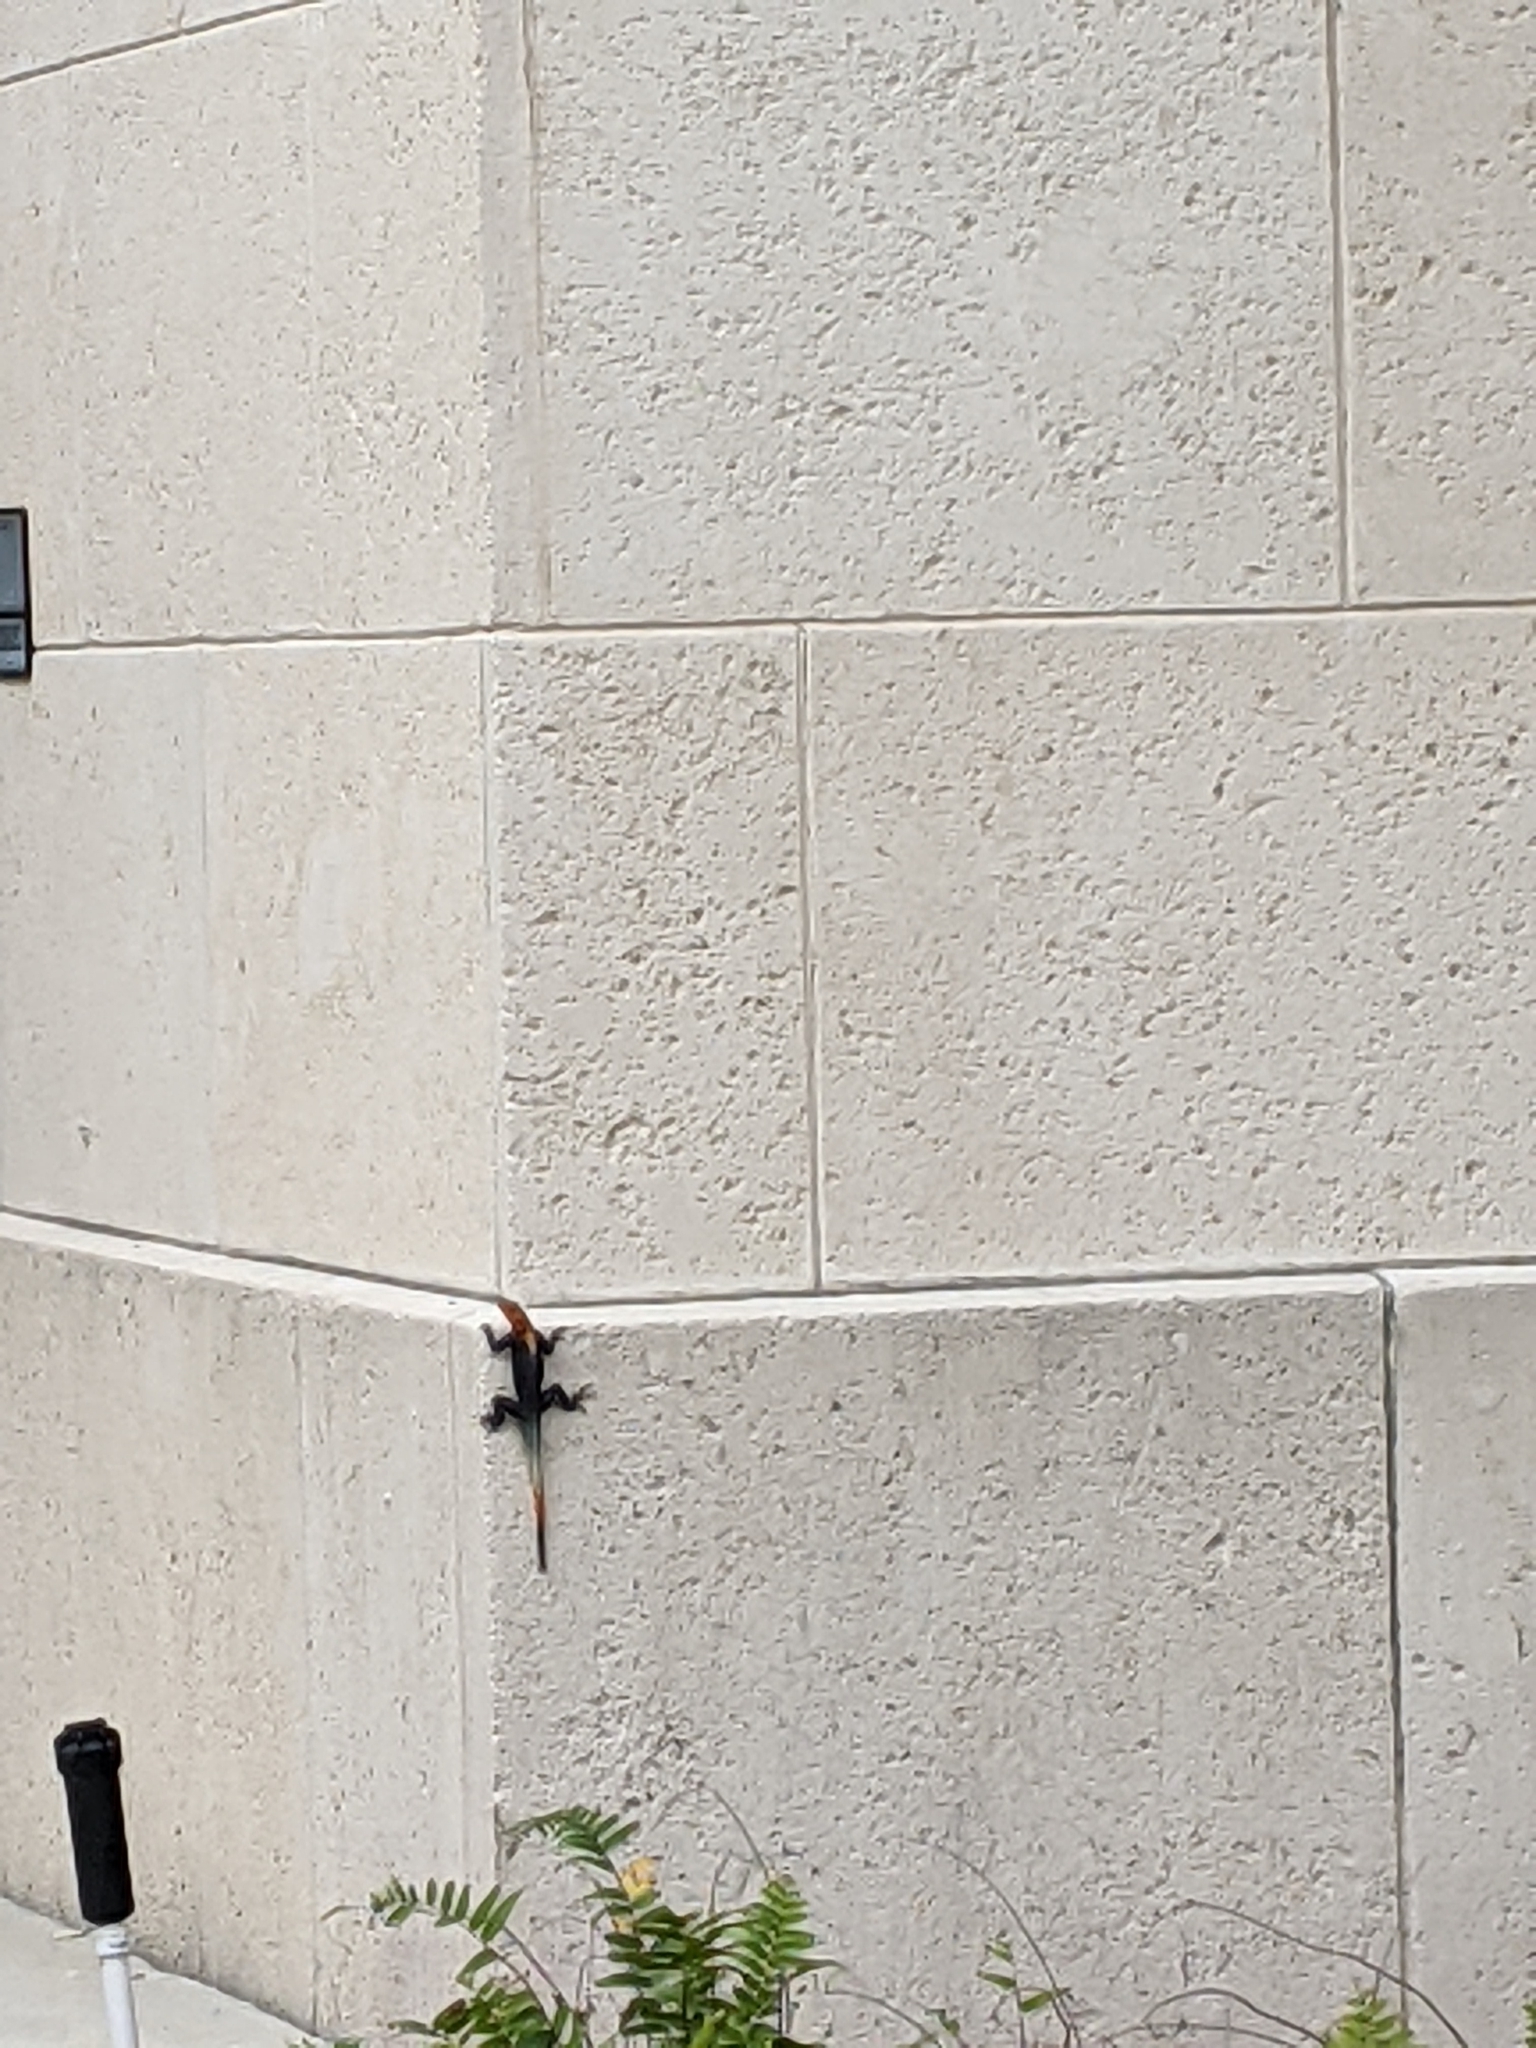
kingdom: Animalia
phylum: Chordata
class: Squamata
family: Agamidae
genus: Agama
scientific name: Agama picticauda
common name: Red-headed agama
